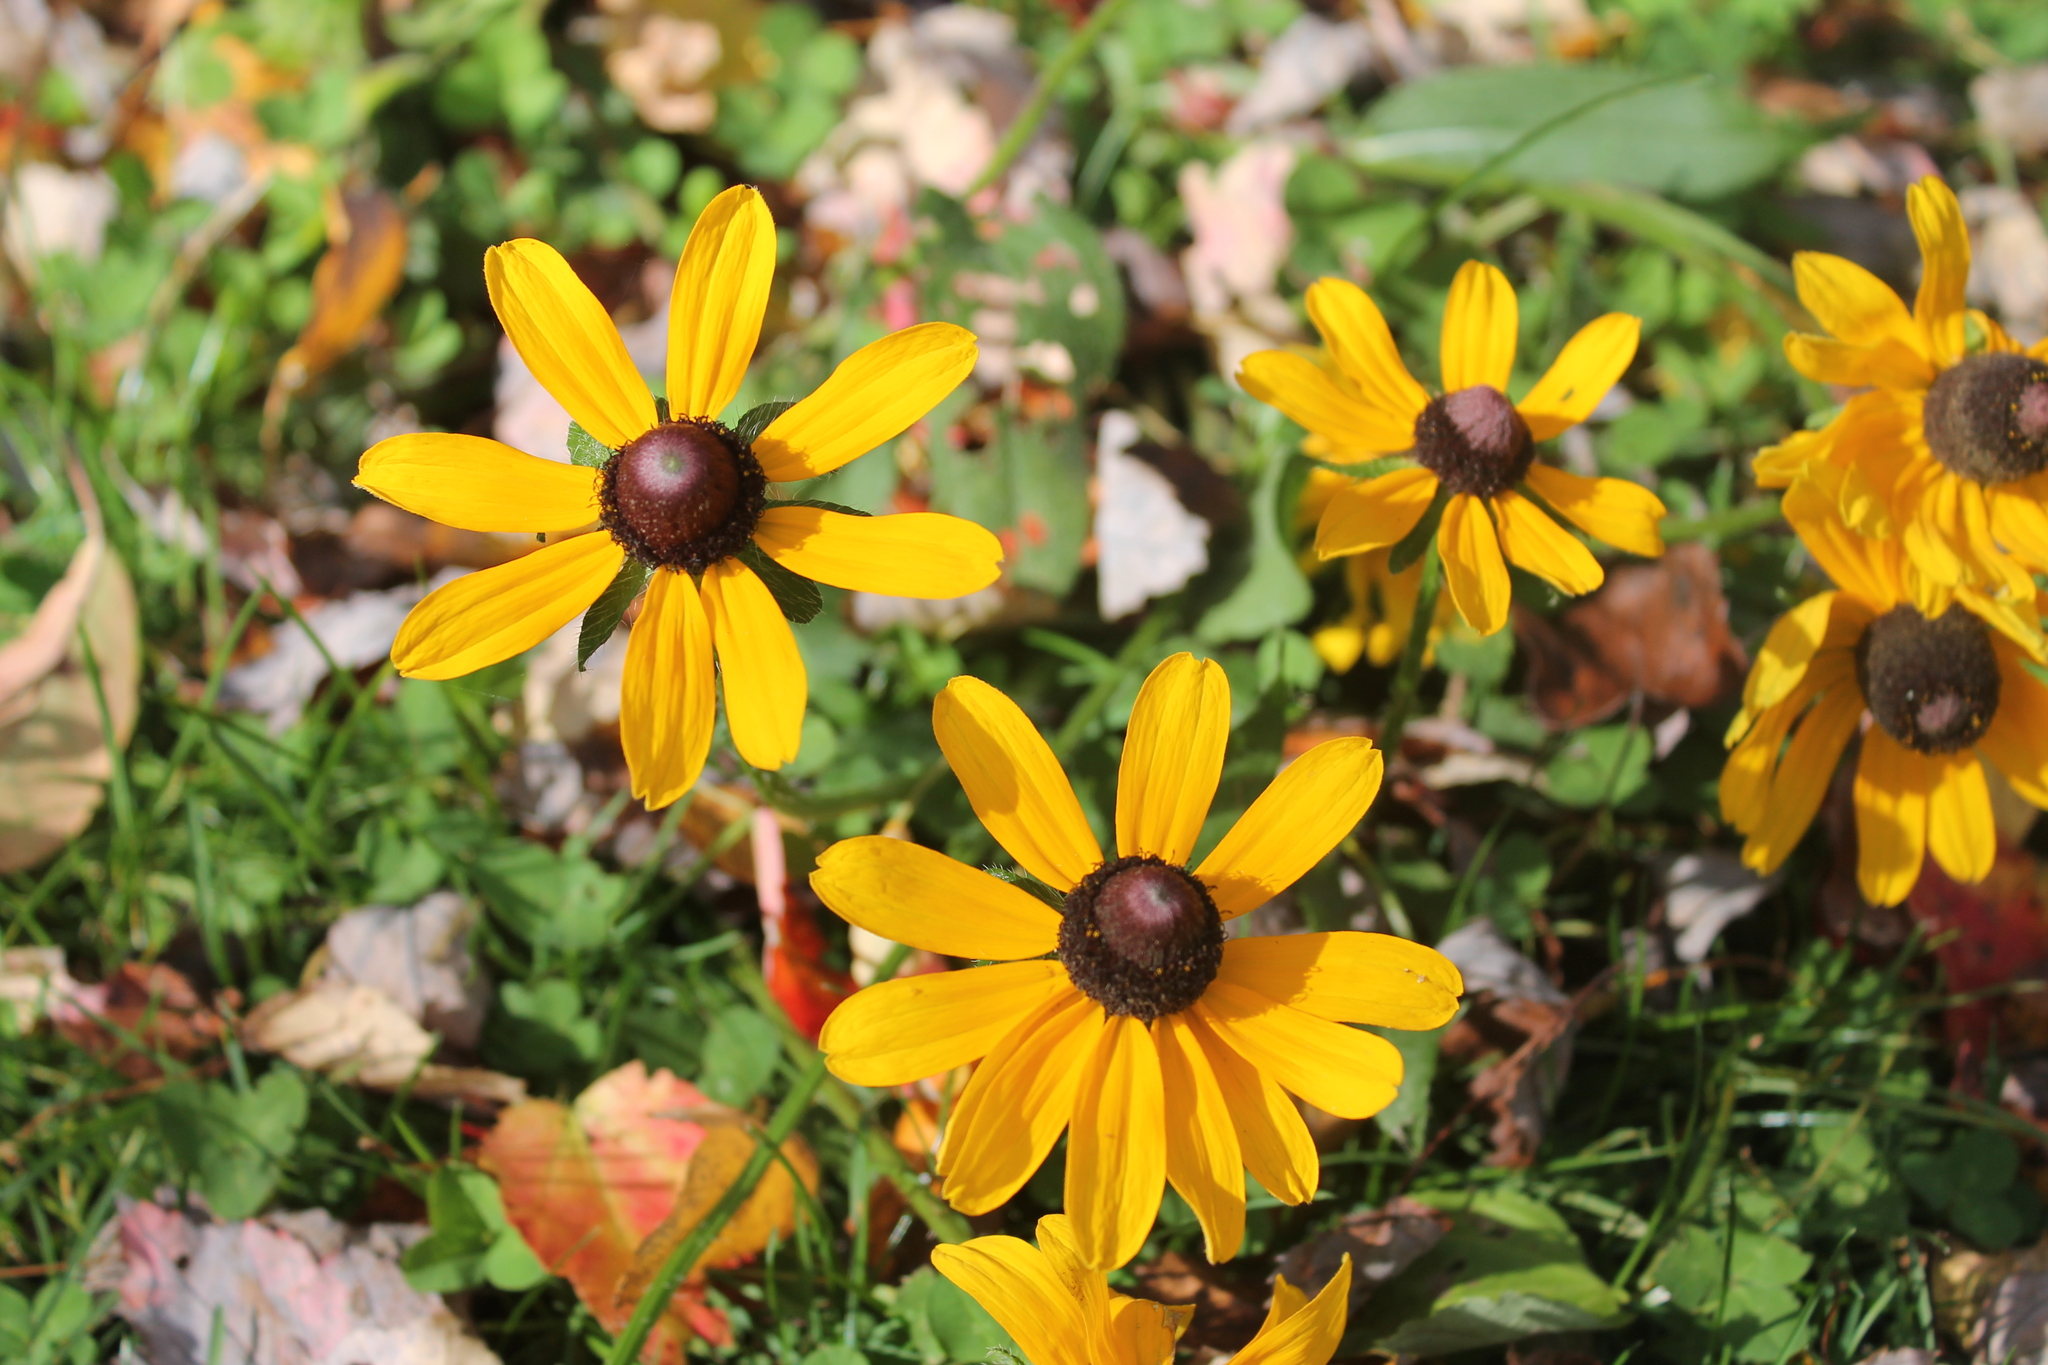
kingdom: Plantae
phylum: Tracheophyta
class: Magnoliopsida
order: Asterales
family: Asteraceae
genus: Rudbeckia
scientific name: Rudbeckia hirta
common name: Black-eyed-susan
